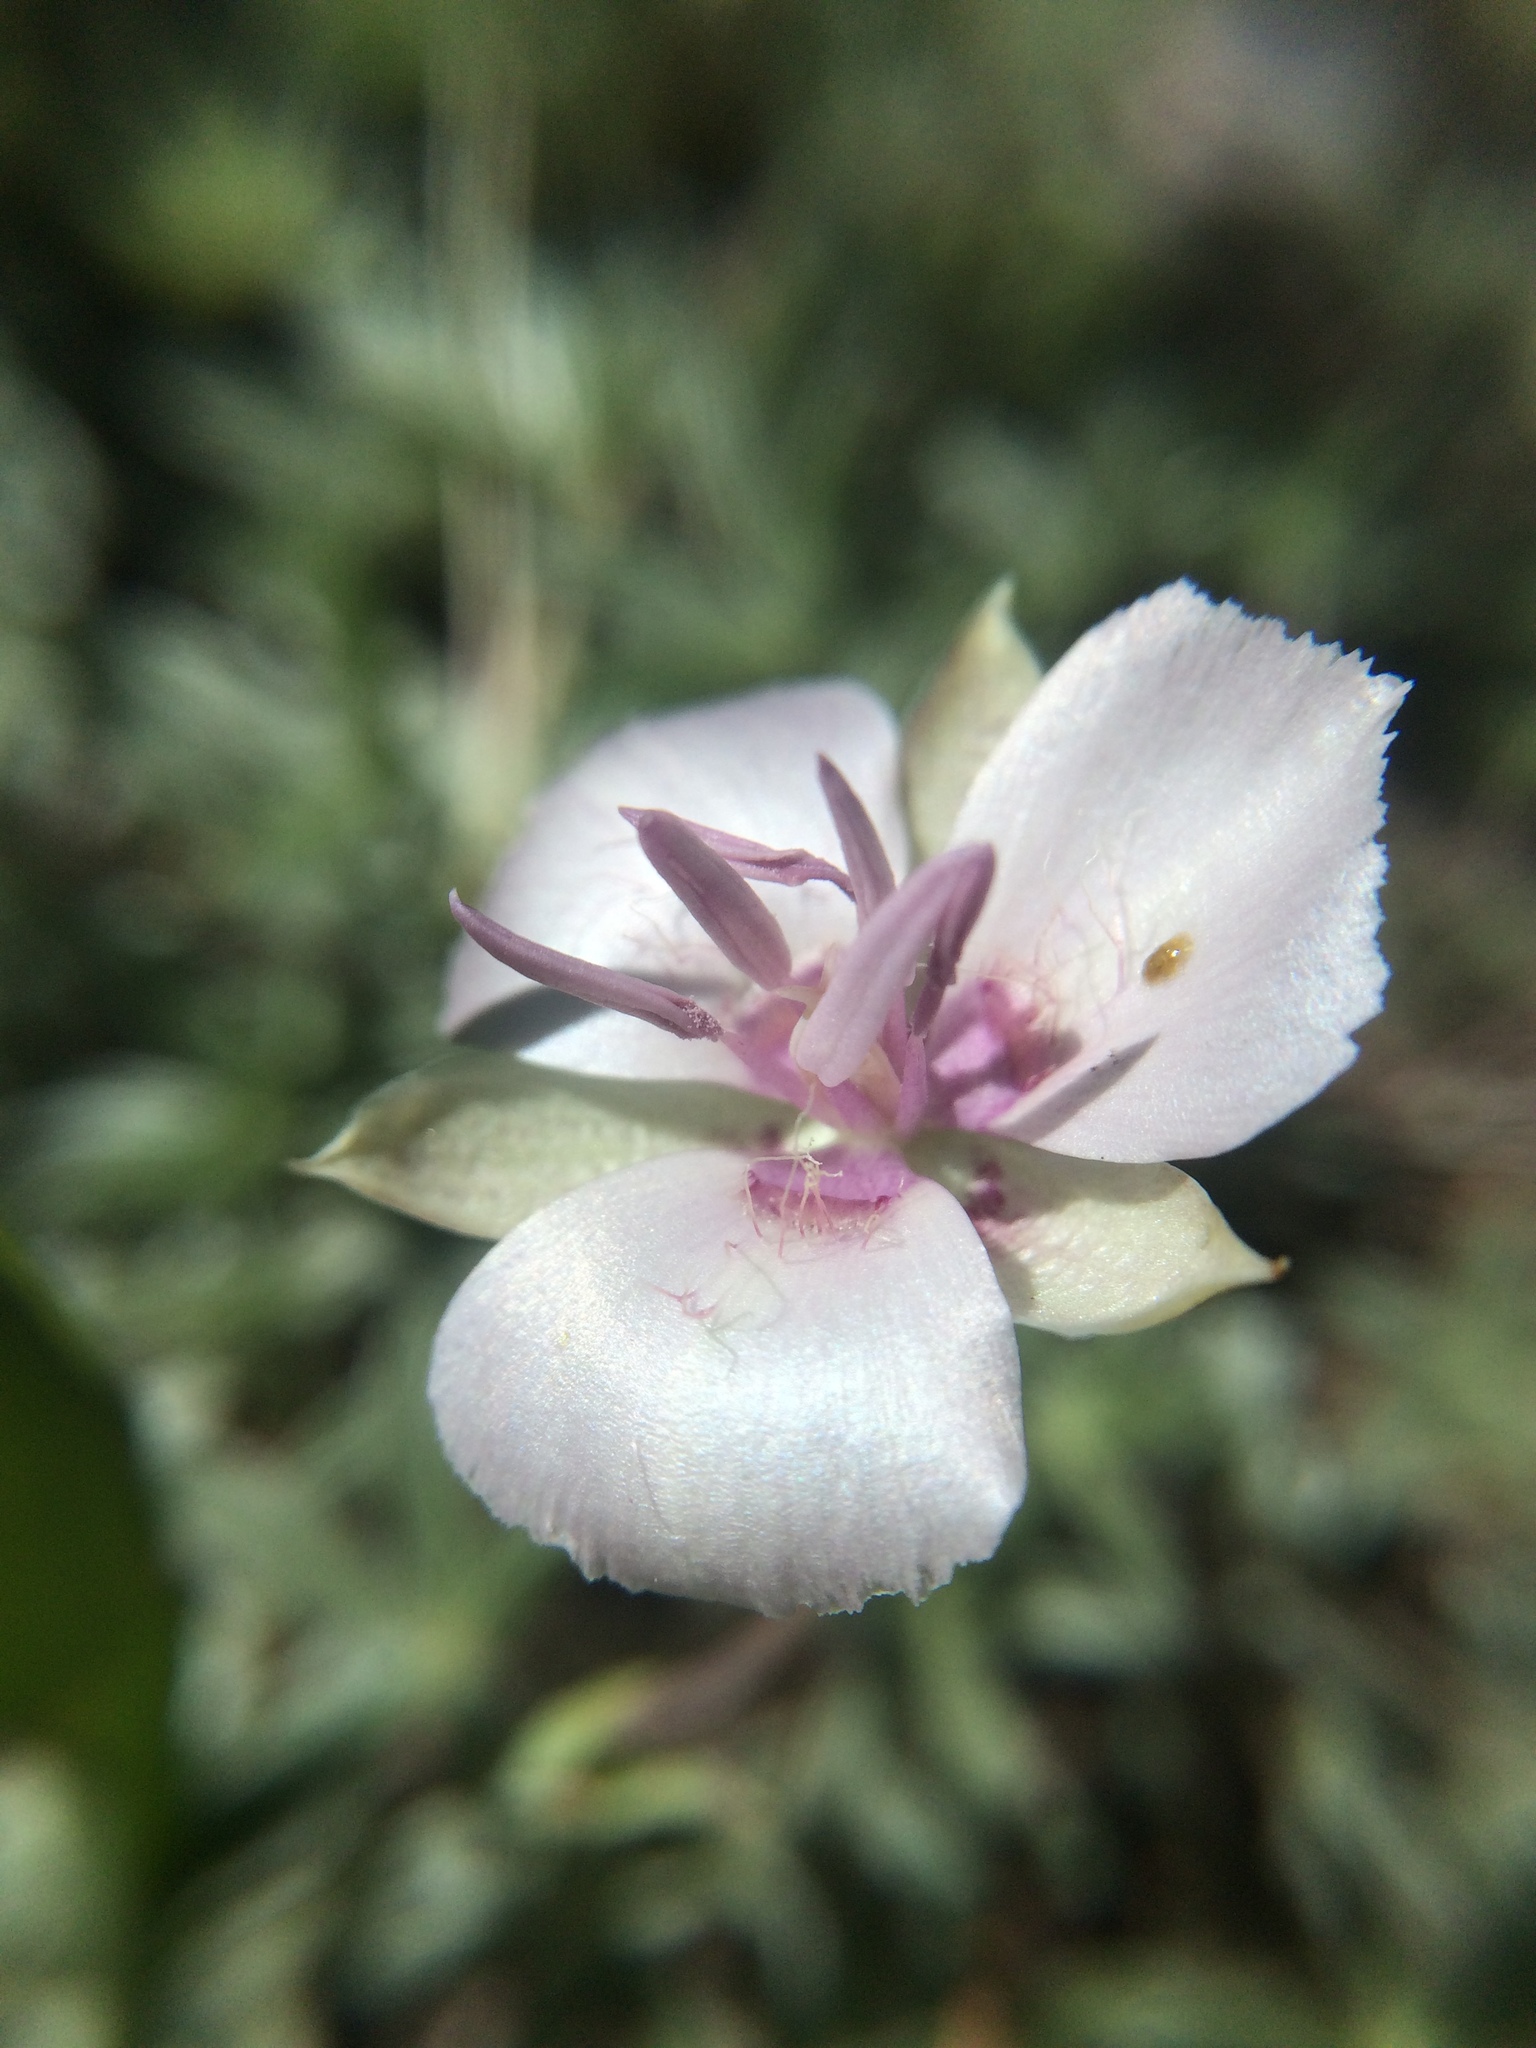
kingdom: Plantae
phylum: Tracheophyta
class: Liliopsida
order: Liliales
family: Liliaceae
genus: Calochortus
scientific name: Calochortus minimus
